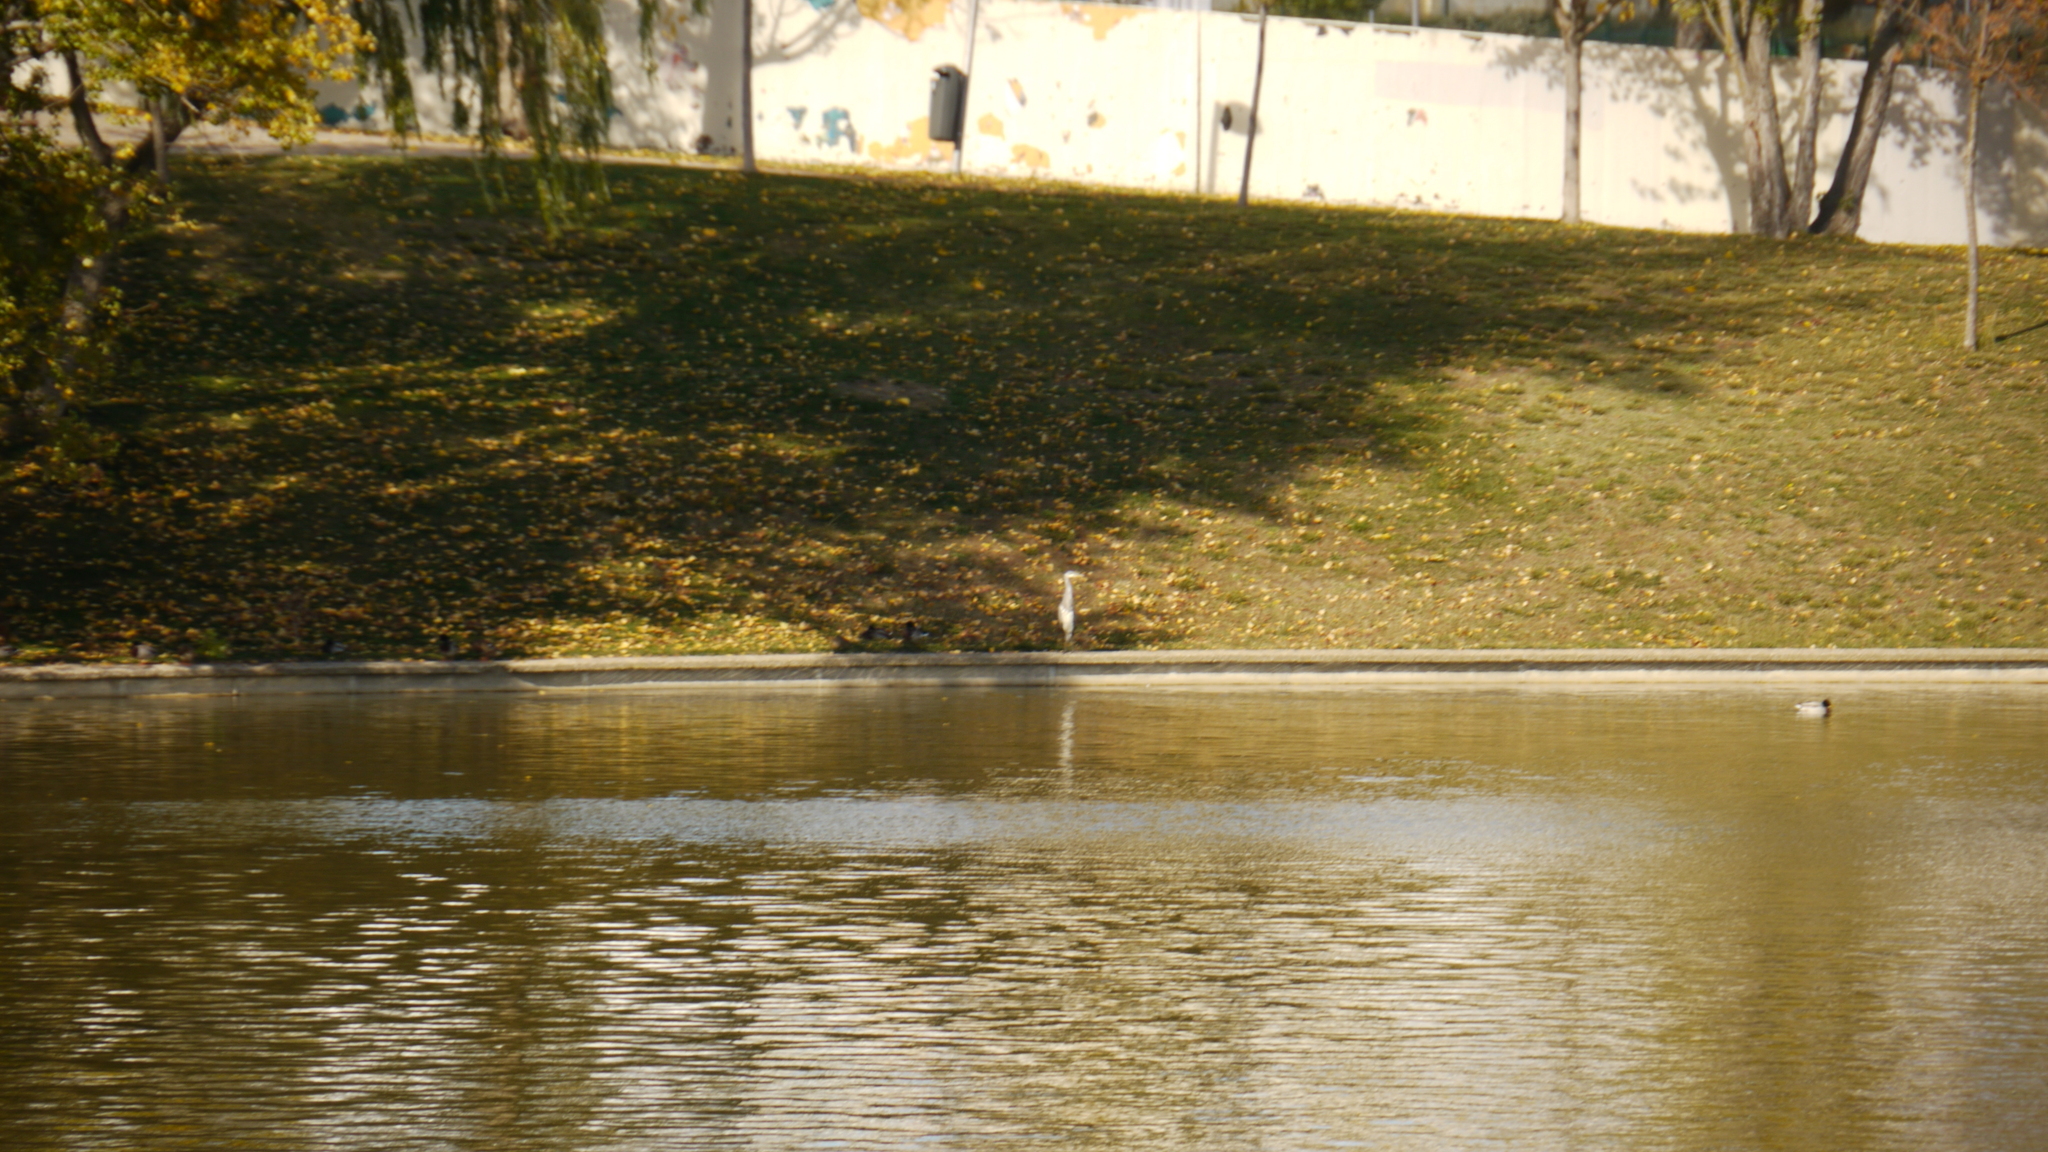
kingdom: Animalia
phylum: Chordata
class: Aves
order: Pelecaniformes
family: Ardeidae
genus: Ardea
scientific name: Ardea cinerea
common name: Grey heron
